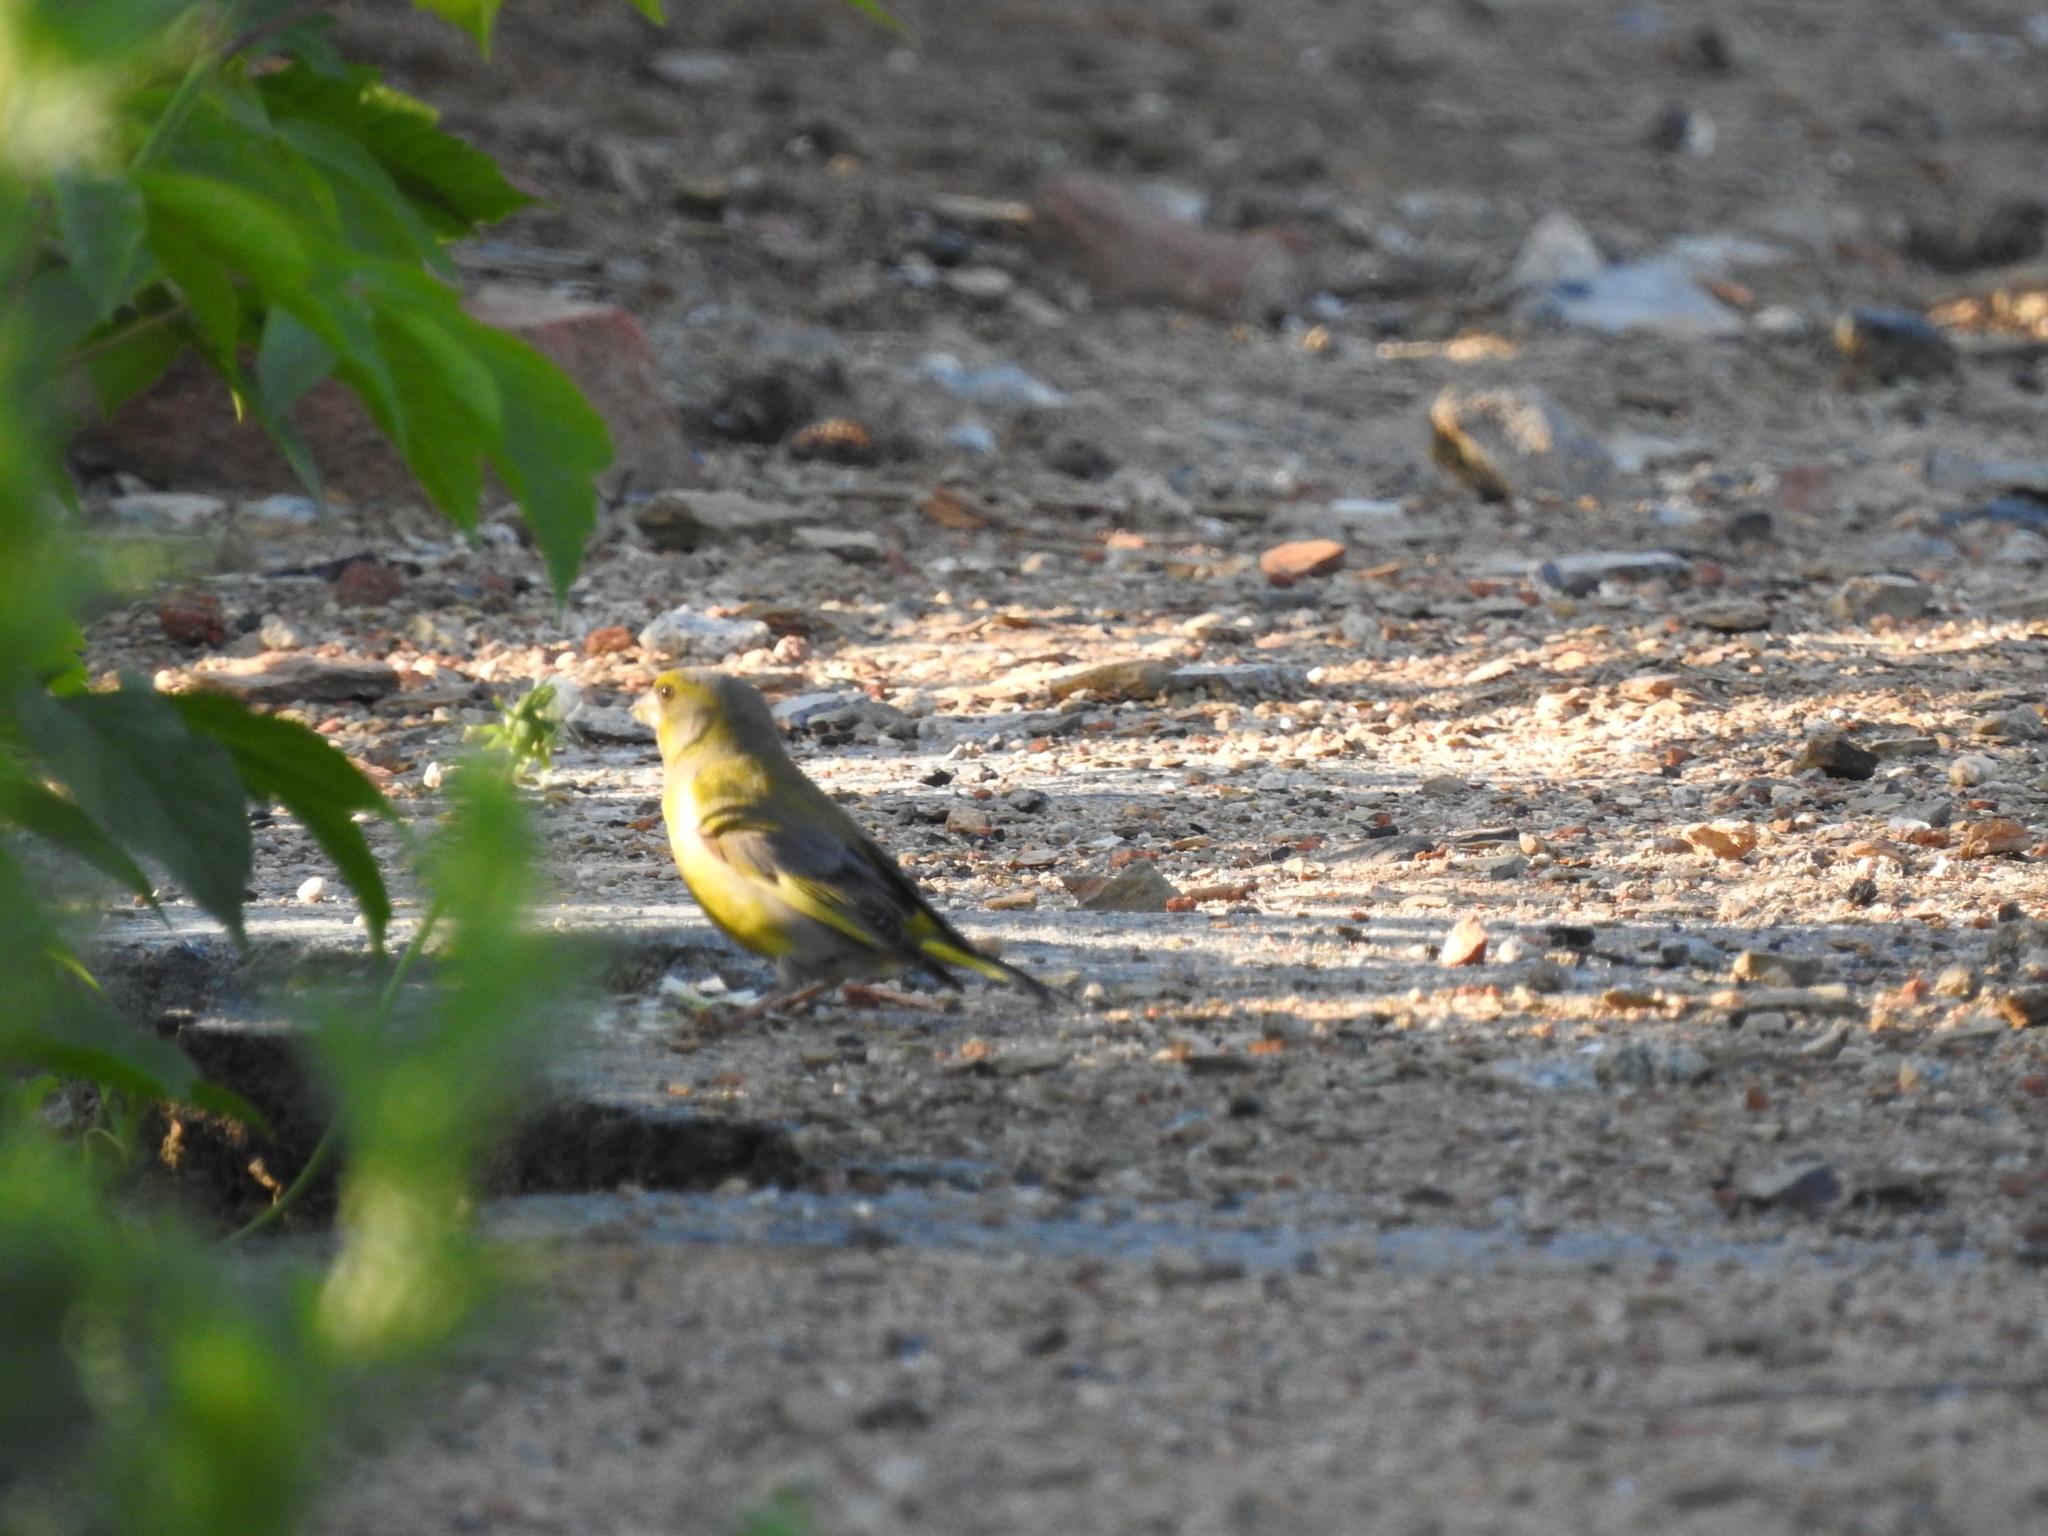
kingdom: Plantae
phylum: Tracheophyta
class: Liliopsida
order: Poales
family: Poaceae
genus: Chloris
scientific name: Chloris chloris
